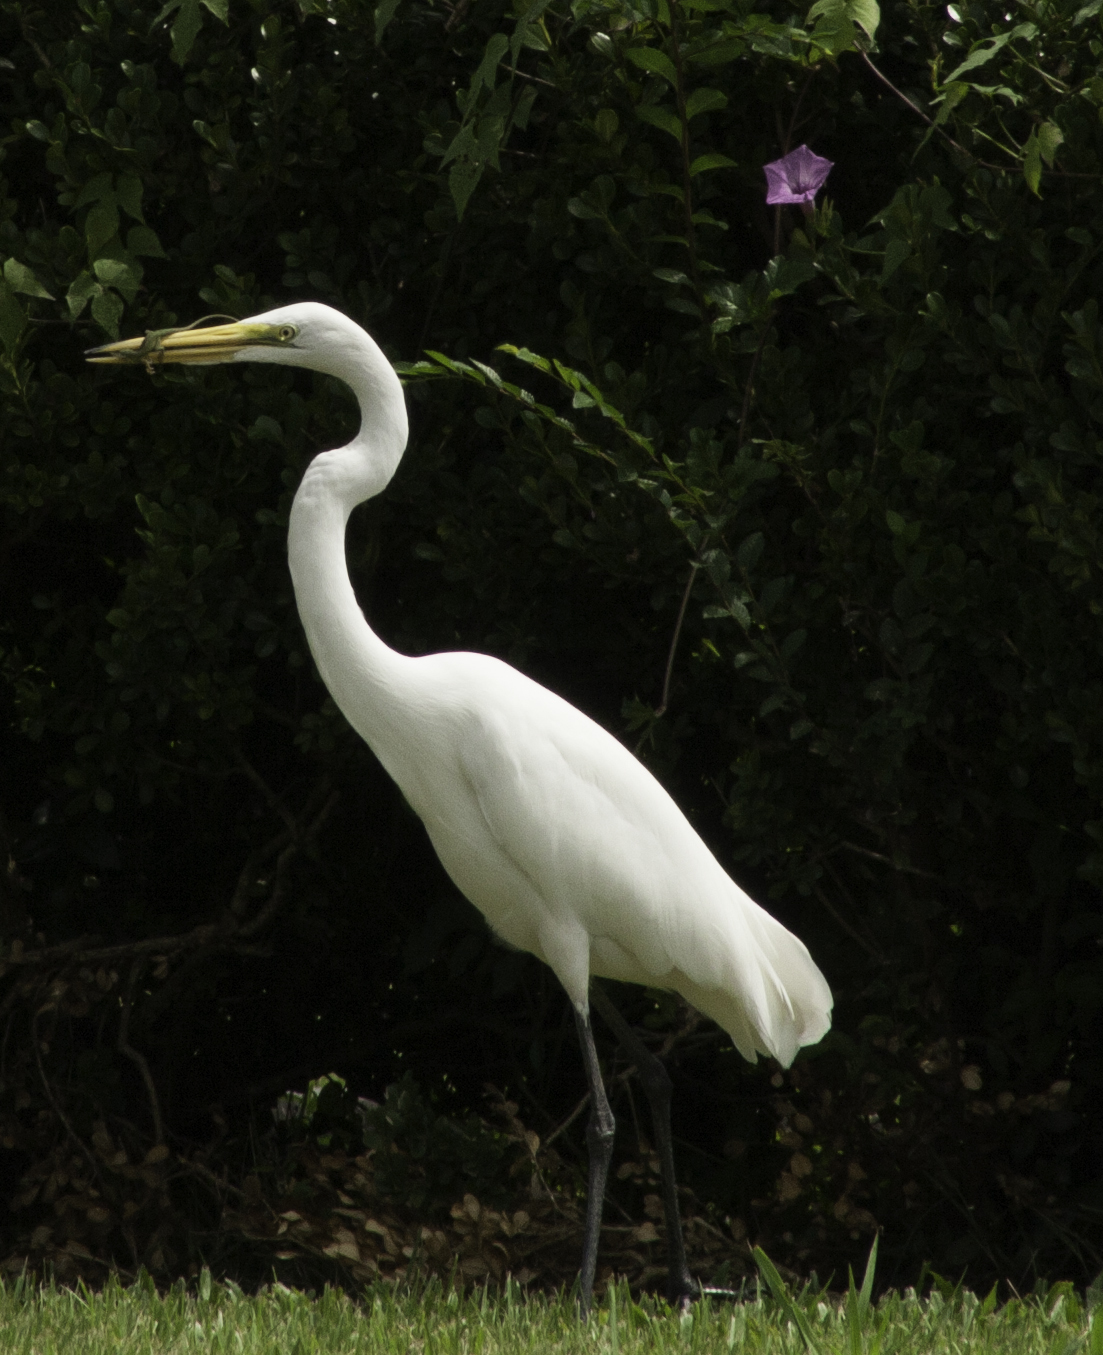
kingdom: Animalia
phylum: Chordata
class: Aves
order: Pelecaniformes
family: Ardeidae
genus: Ardea
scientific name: Ardea alba
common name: Great egret
